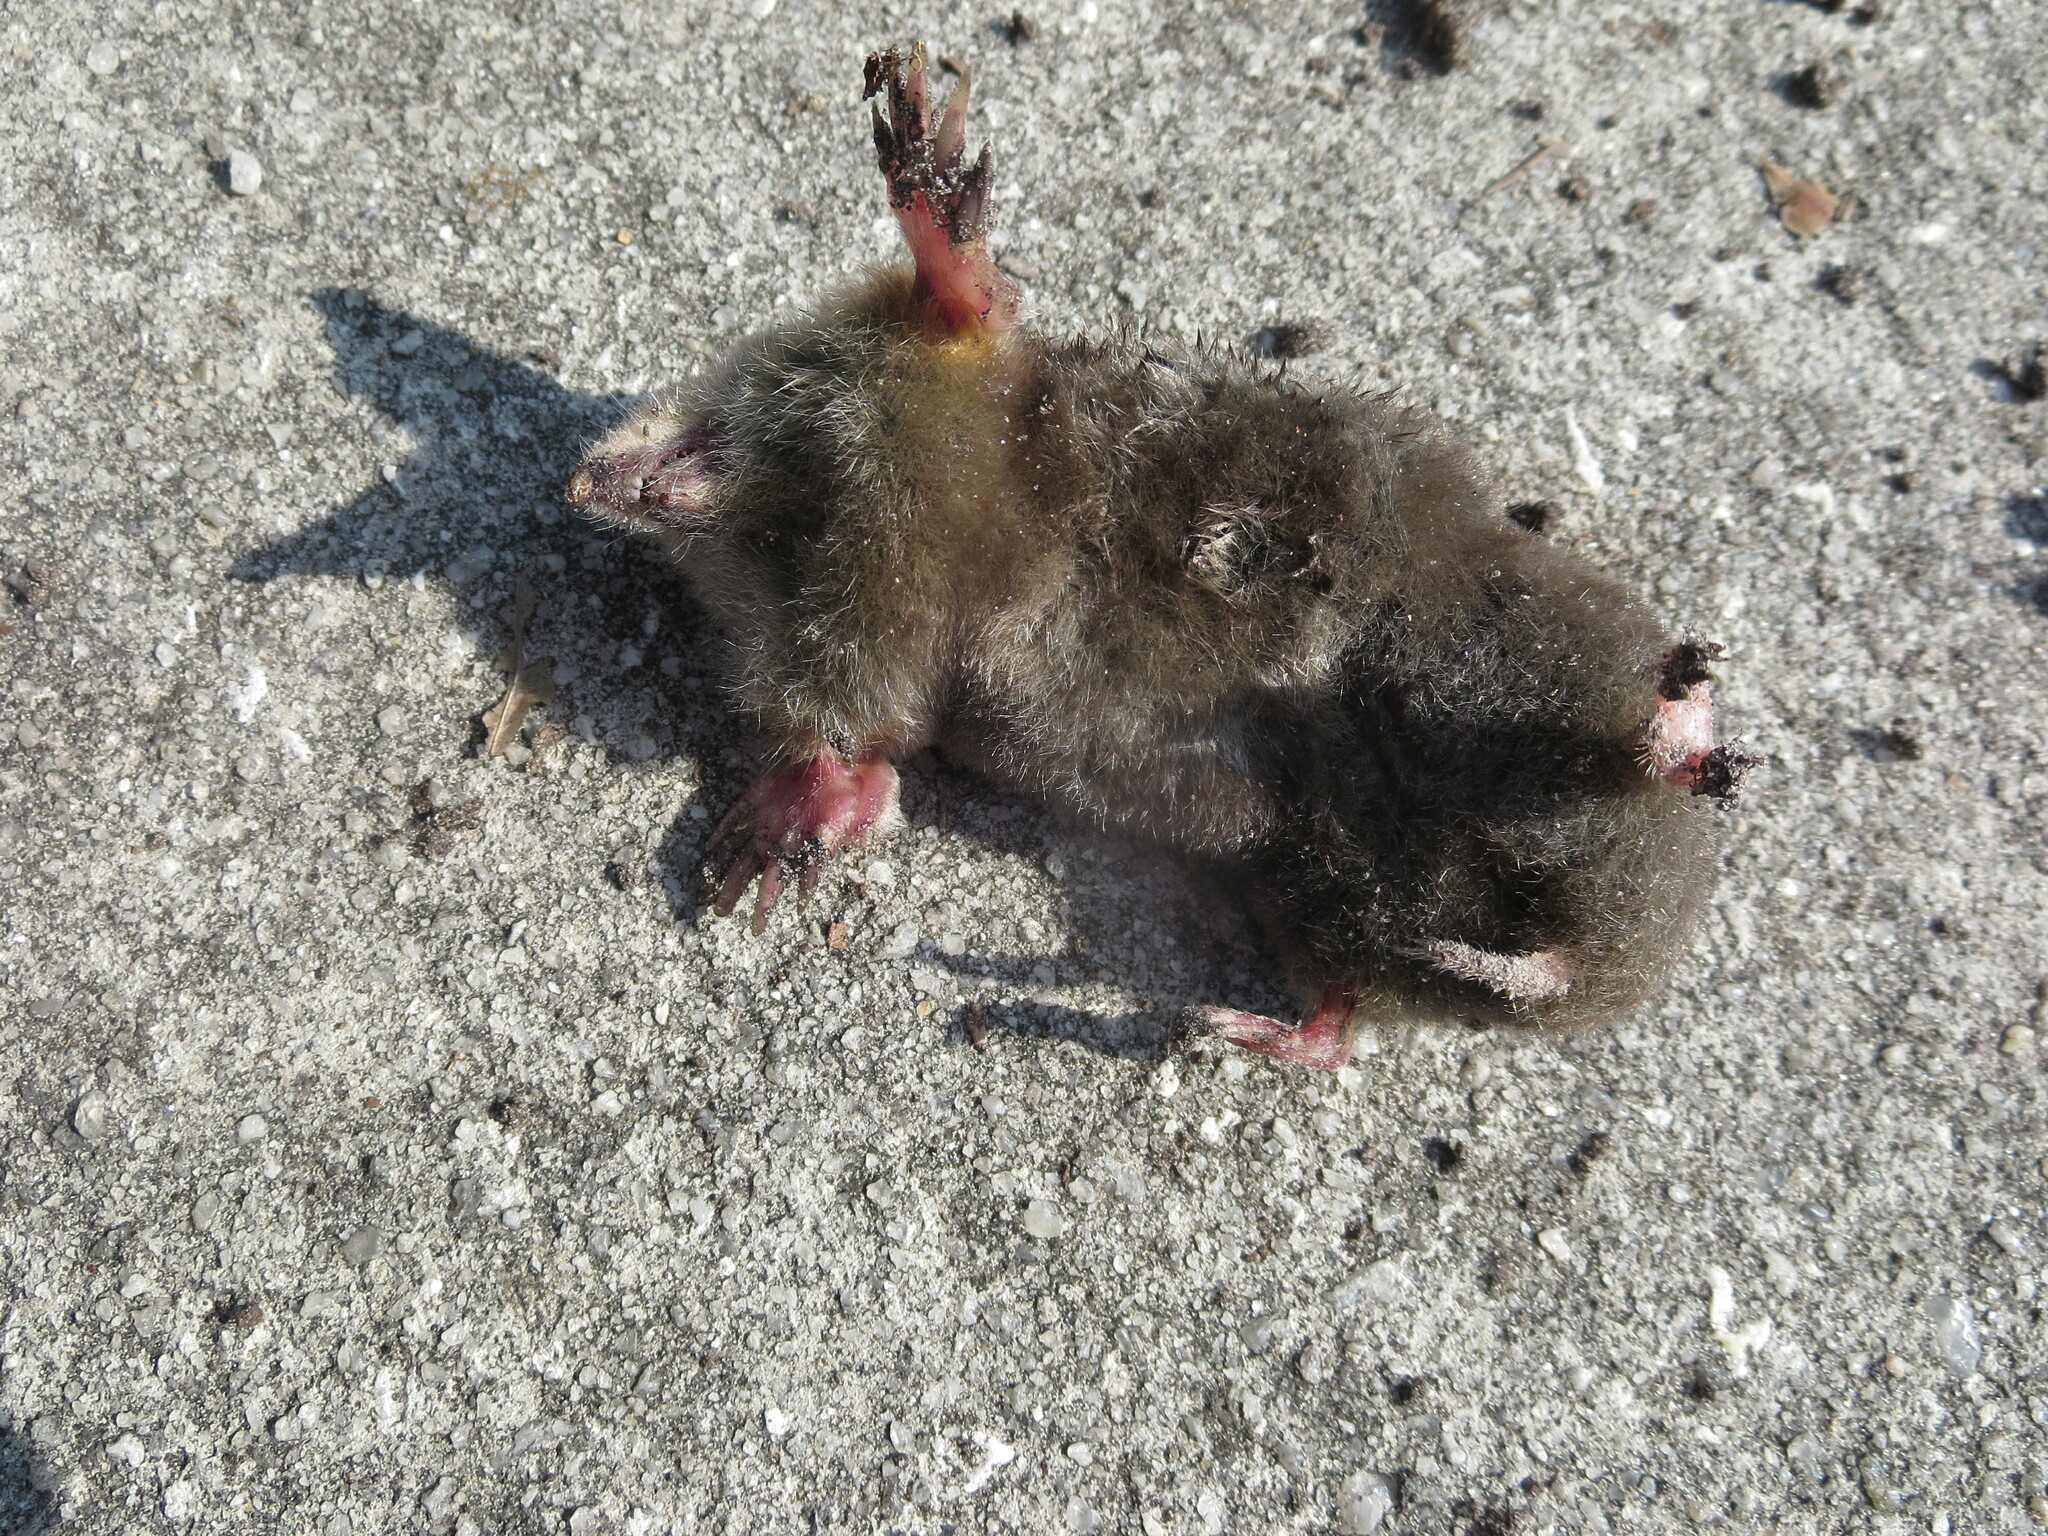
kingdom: Animalia
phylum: Chordata
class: Mammalia
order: Soricomorpha
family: Talpidae
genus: Scalopus
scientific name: Scalopus aquaticus
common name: Eastern mole
